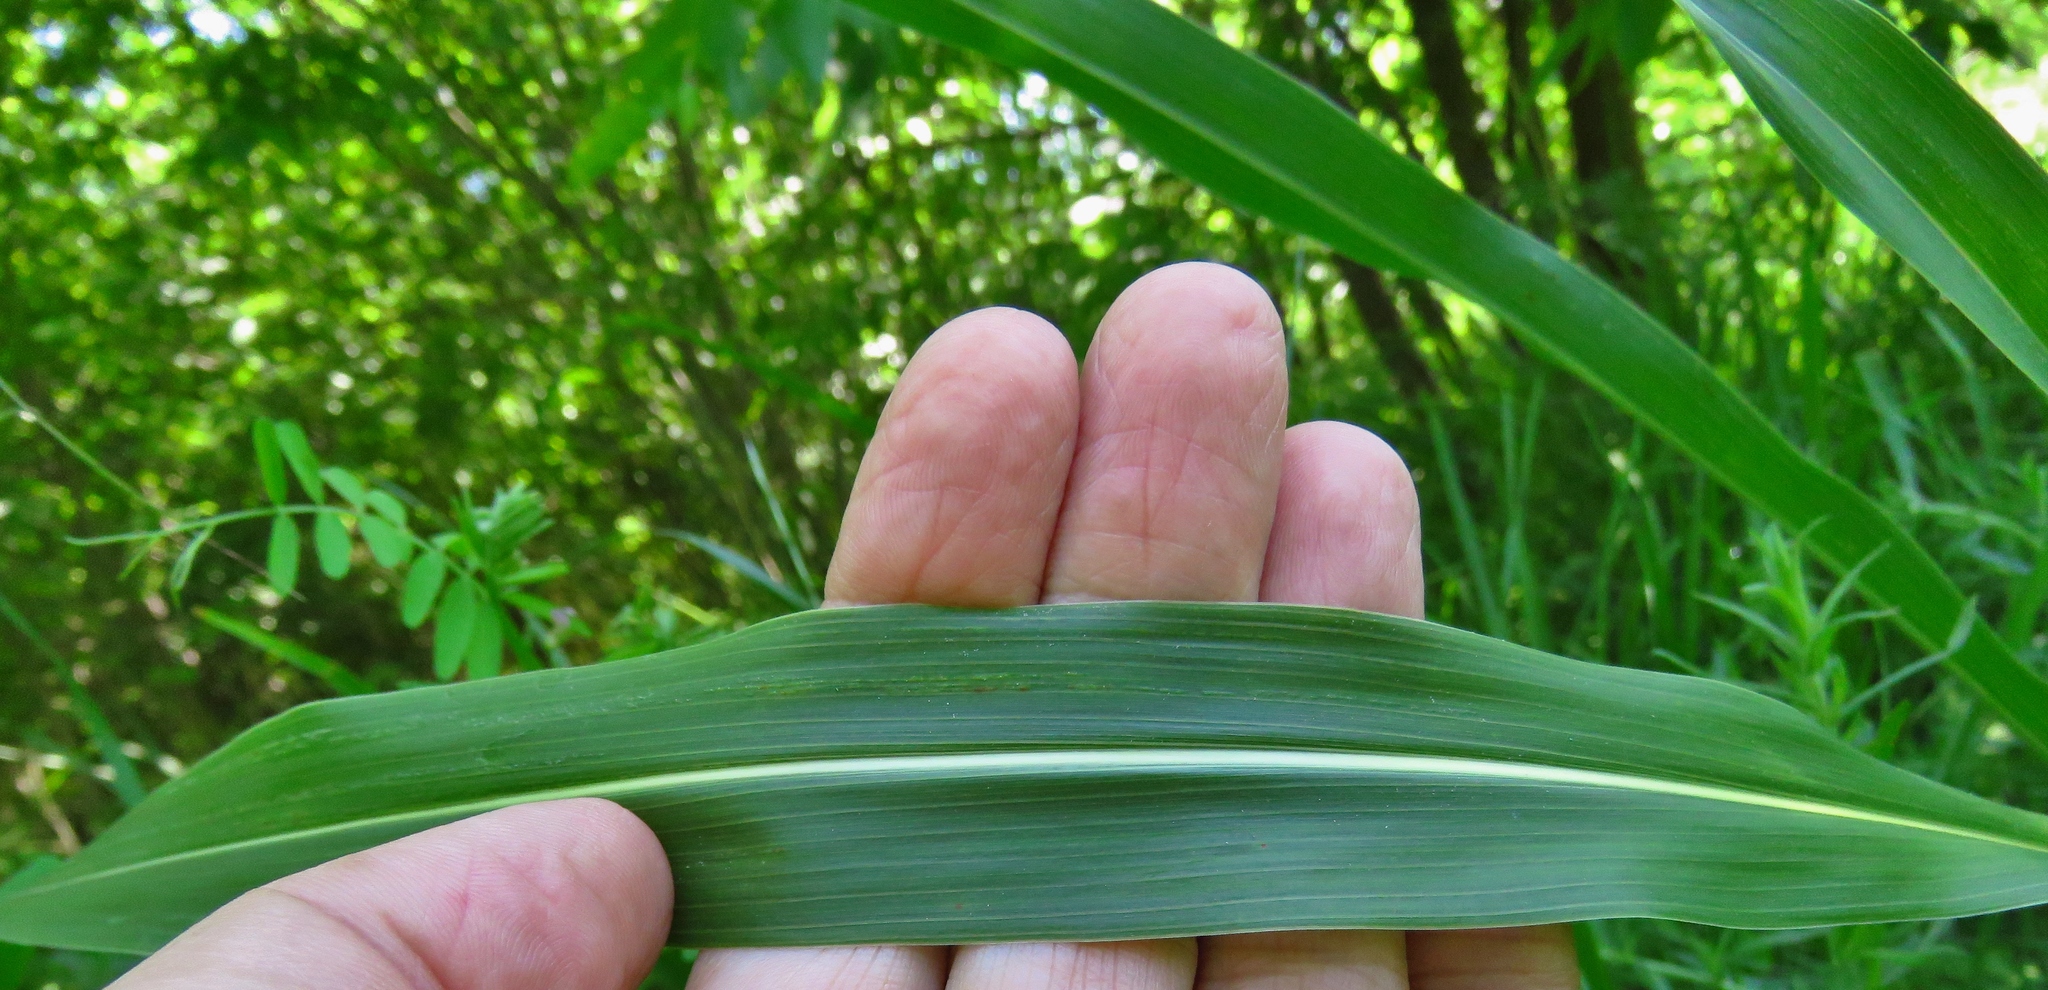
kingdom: Plantae
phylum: Tracheophyta
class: Liliopsida
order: Poales
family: Poaceae
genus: Sorghum
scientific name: Sorghum halepense
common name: Johnson-grass
